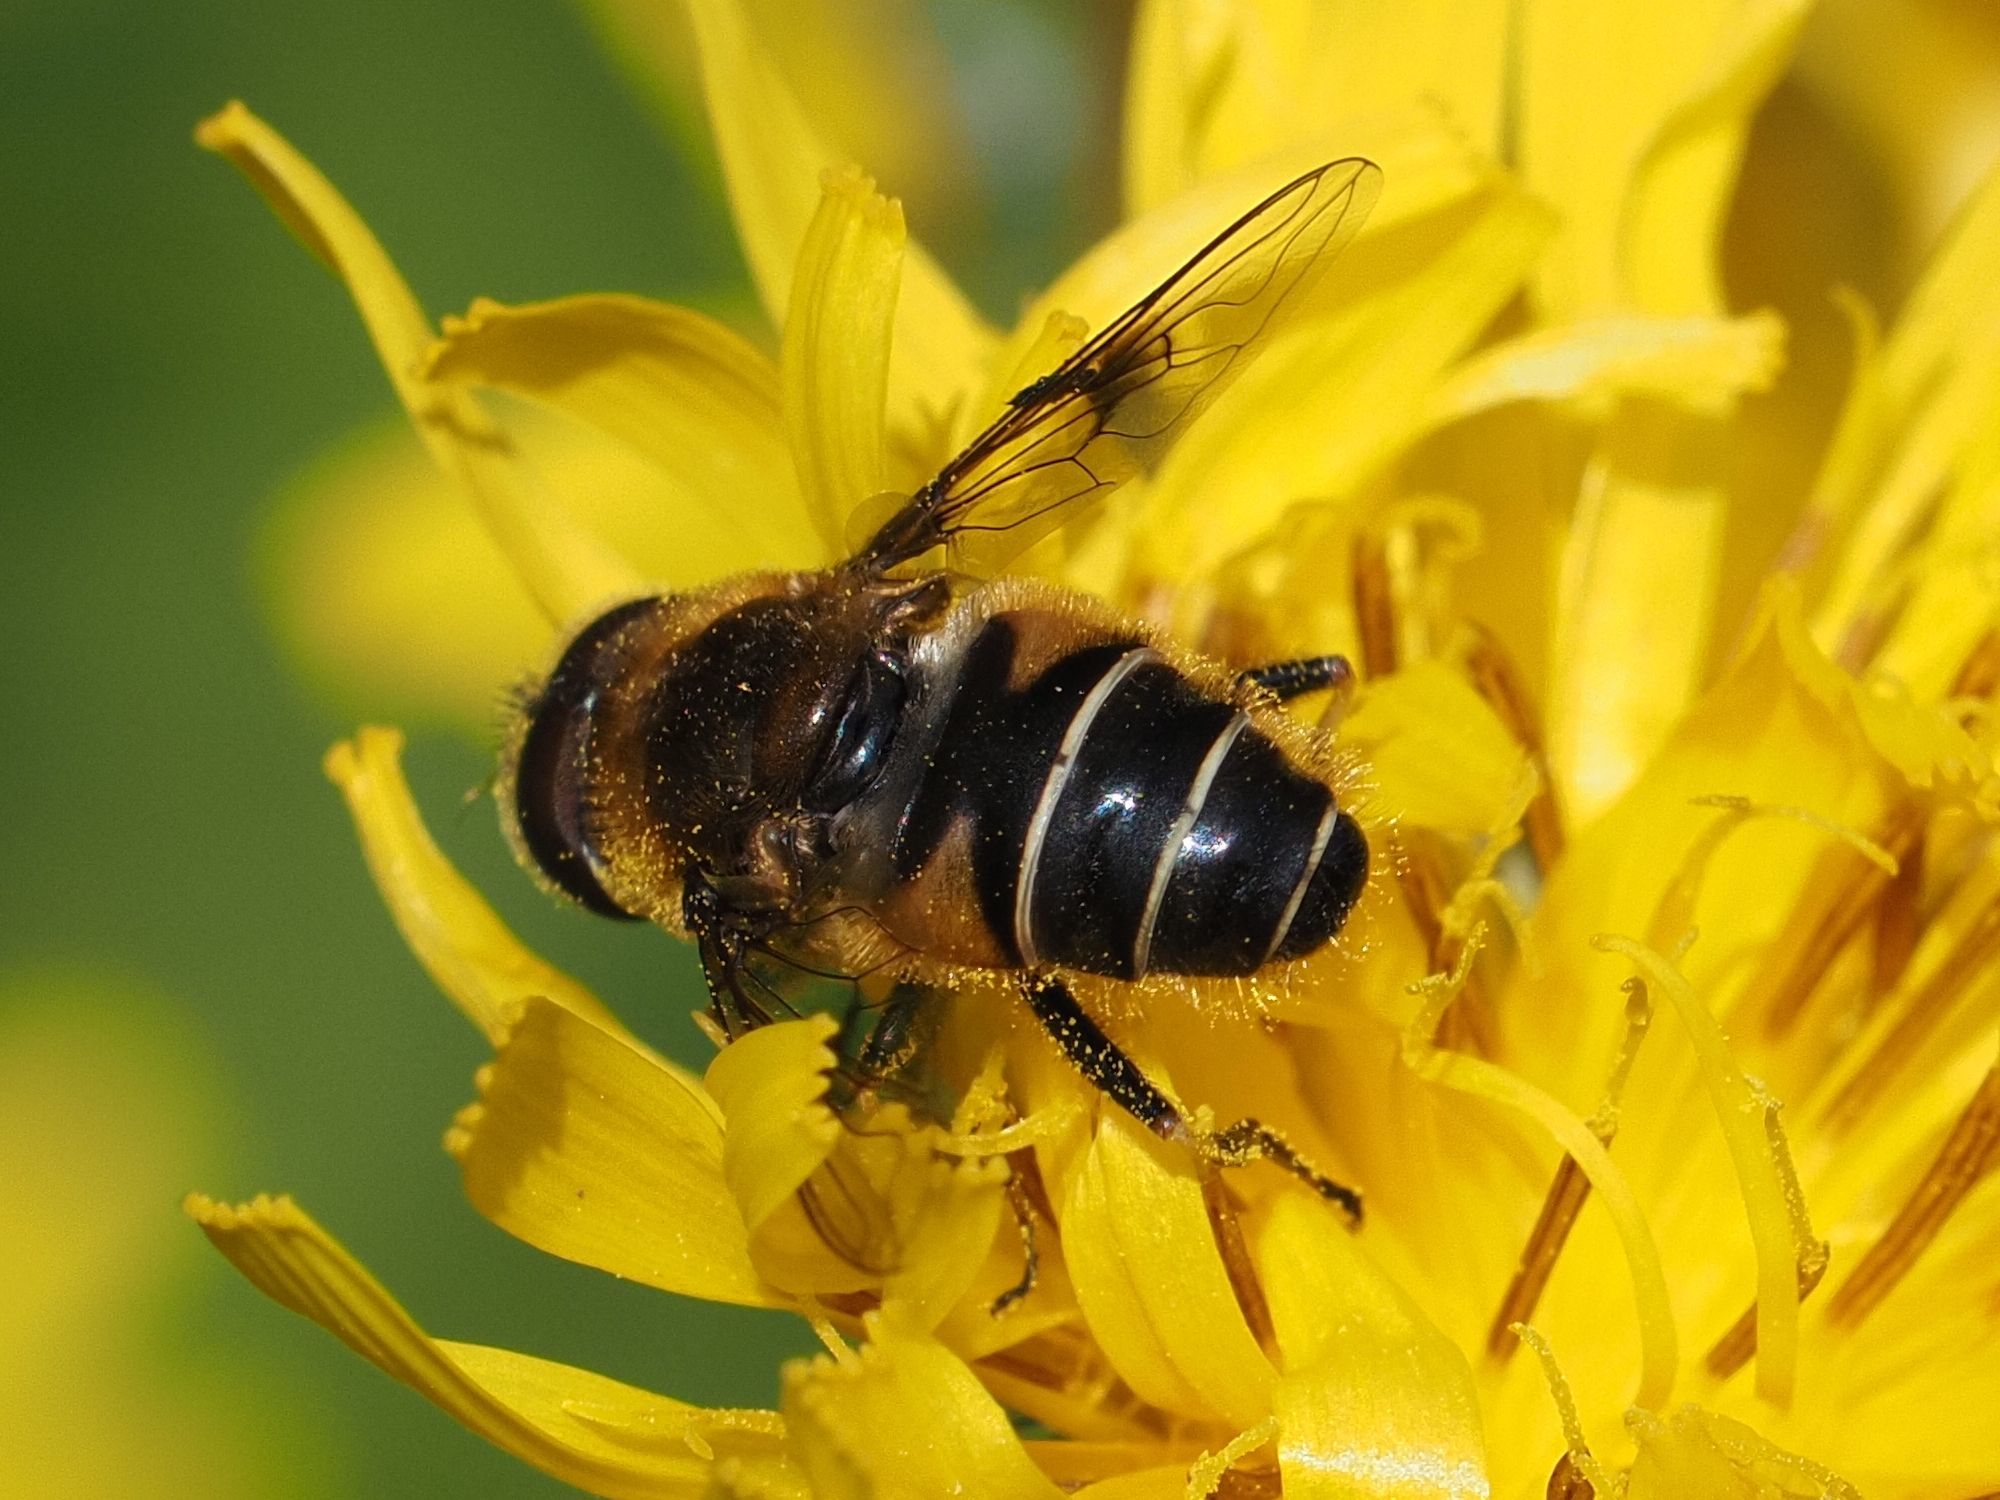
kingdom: Animalia
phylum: Arthropoda
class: Insecta
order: Diptera
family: Syrphidae
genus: Eristalis
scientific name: Eristalis rupium
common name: Hover fly
